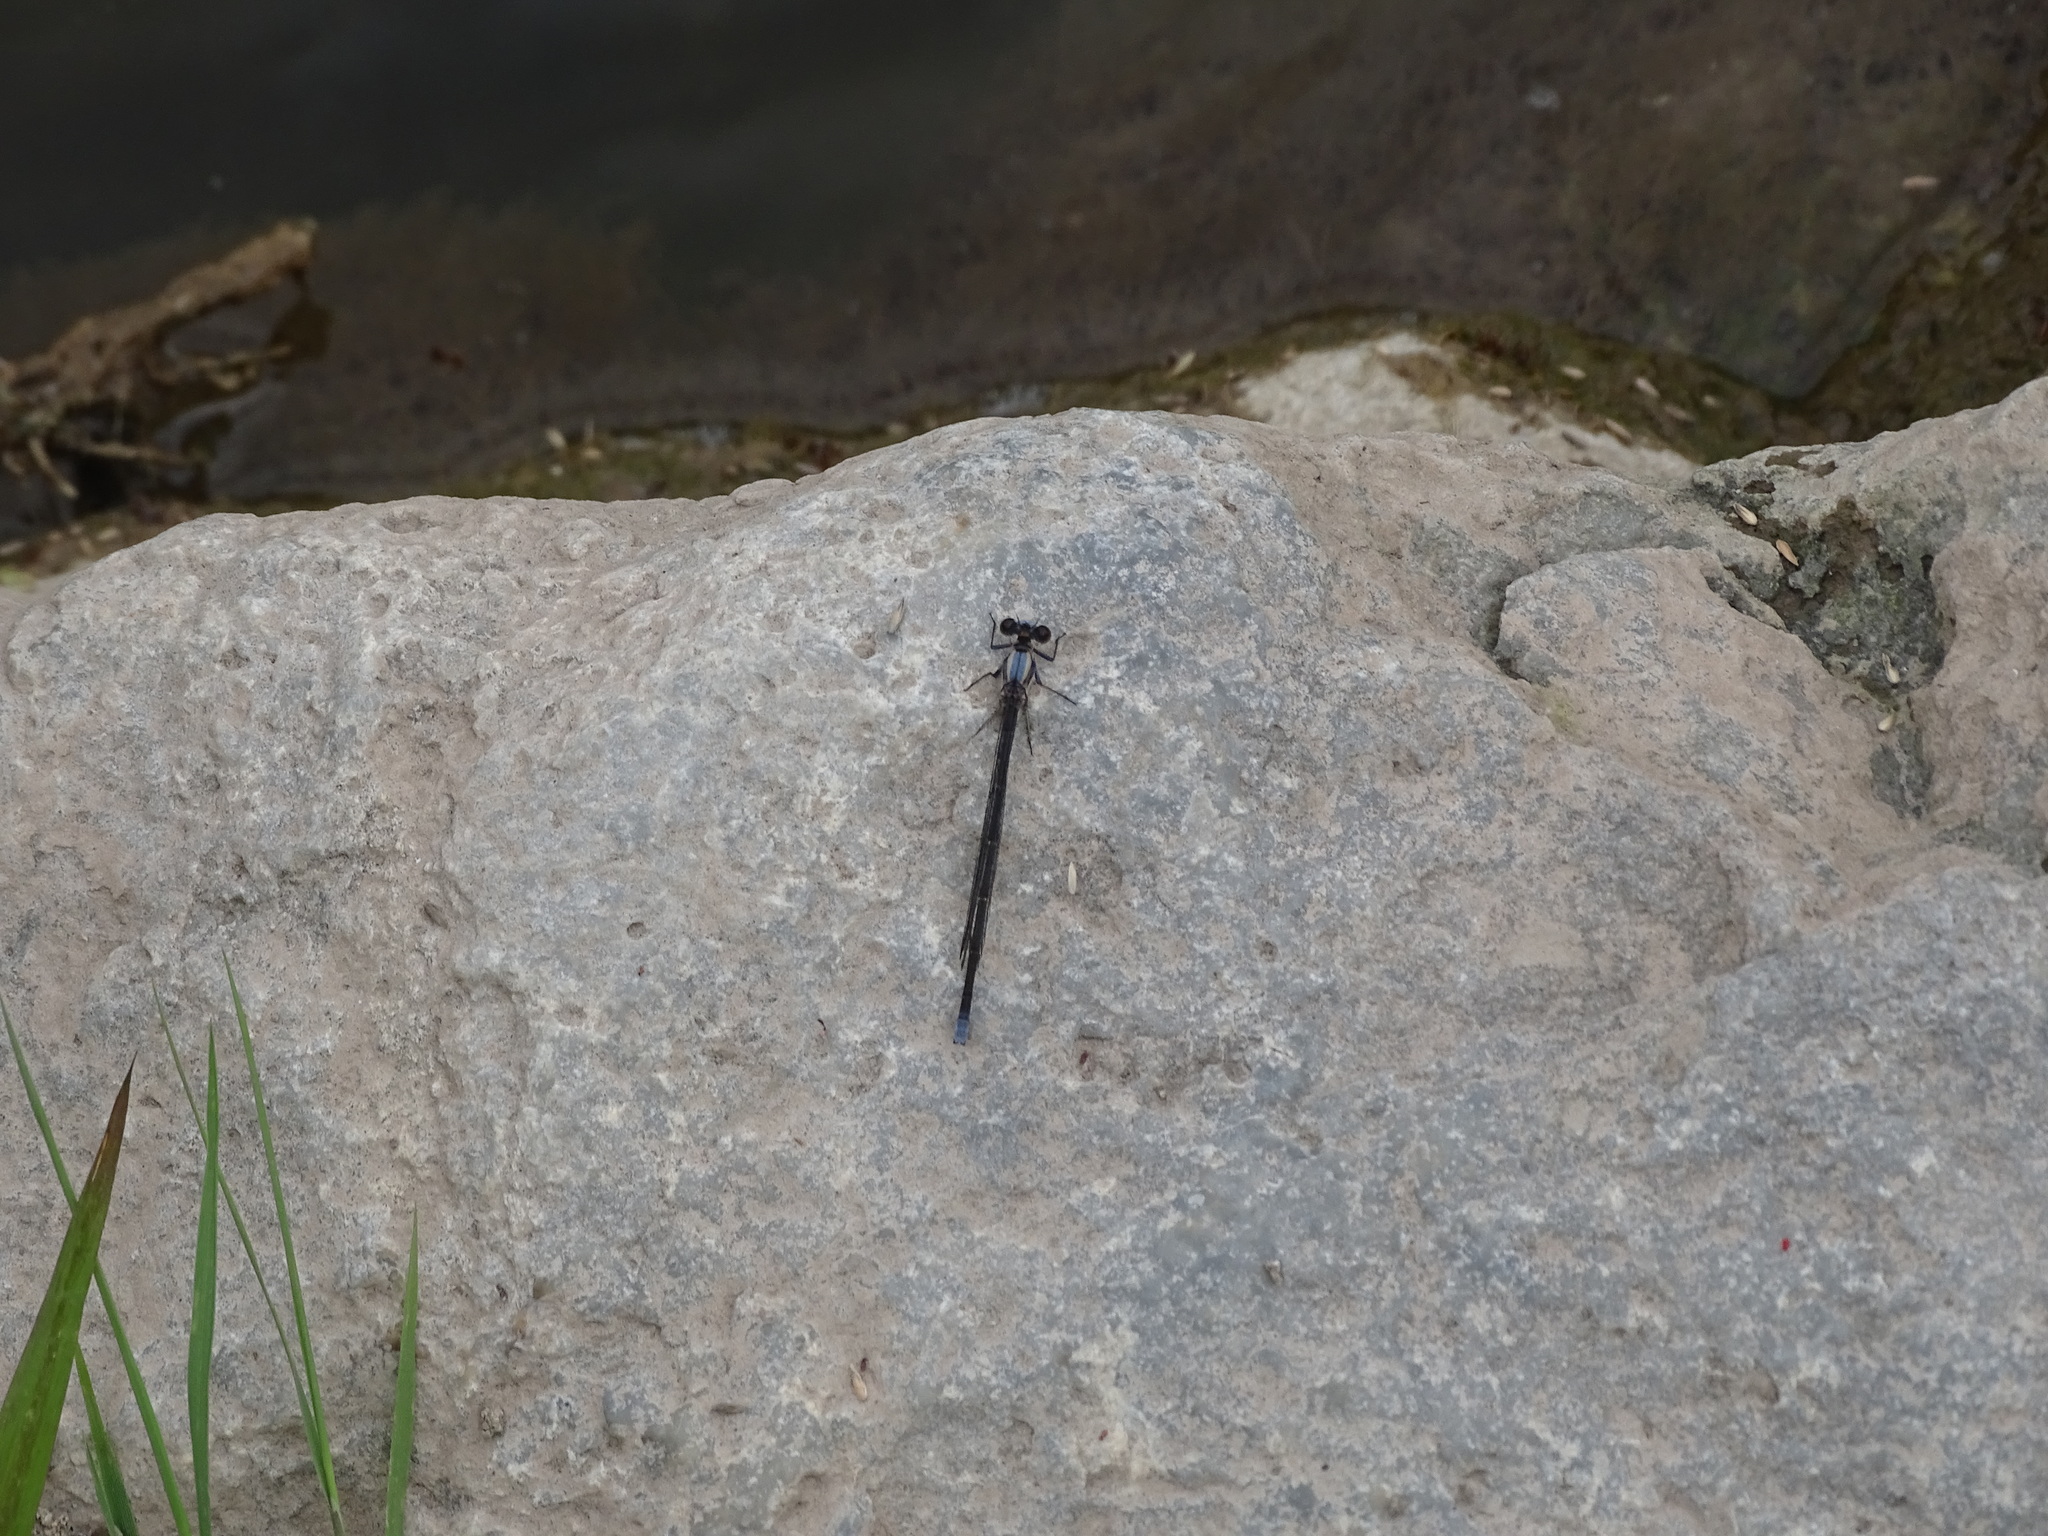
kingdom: Animalia
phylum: Arthropoda
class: Insecta
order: Odonata
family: Coenagrionidae
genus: Argia
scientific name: Argia moesta
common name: Powdered dancer
